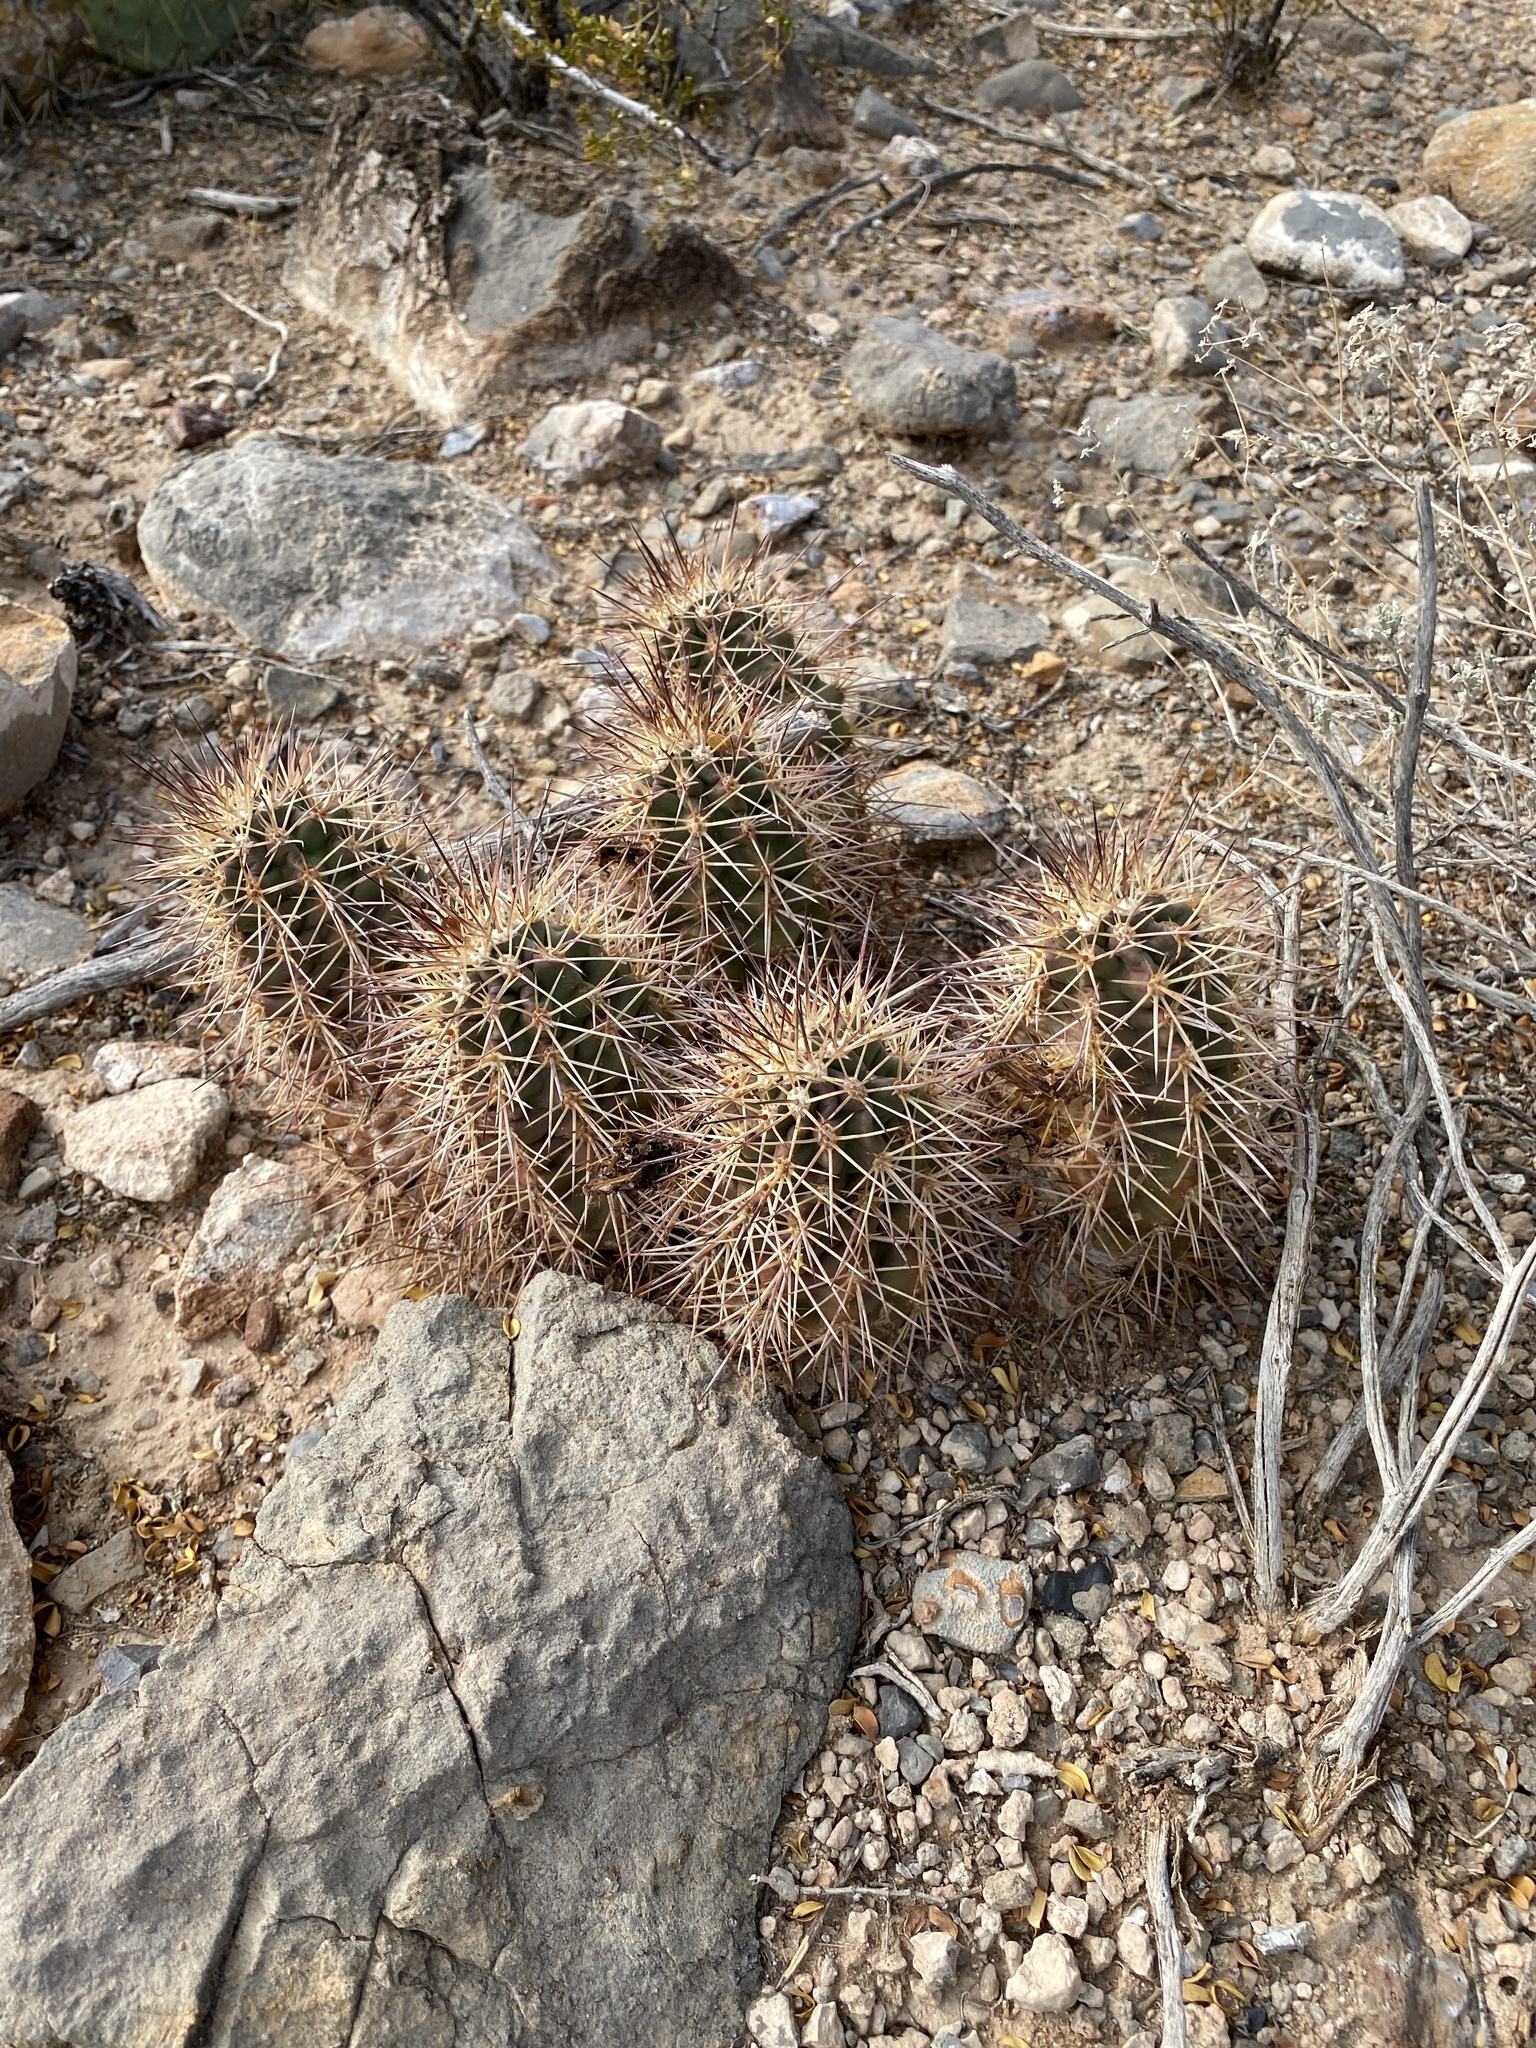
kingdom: Plantae
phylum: Tracheophyta
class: Magnoliopsida
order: Caryophyllales
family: Cactaceae
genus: Echinocereus
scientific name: Echinocereus coccineus
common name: Scarlet hedgehog cactus
